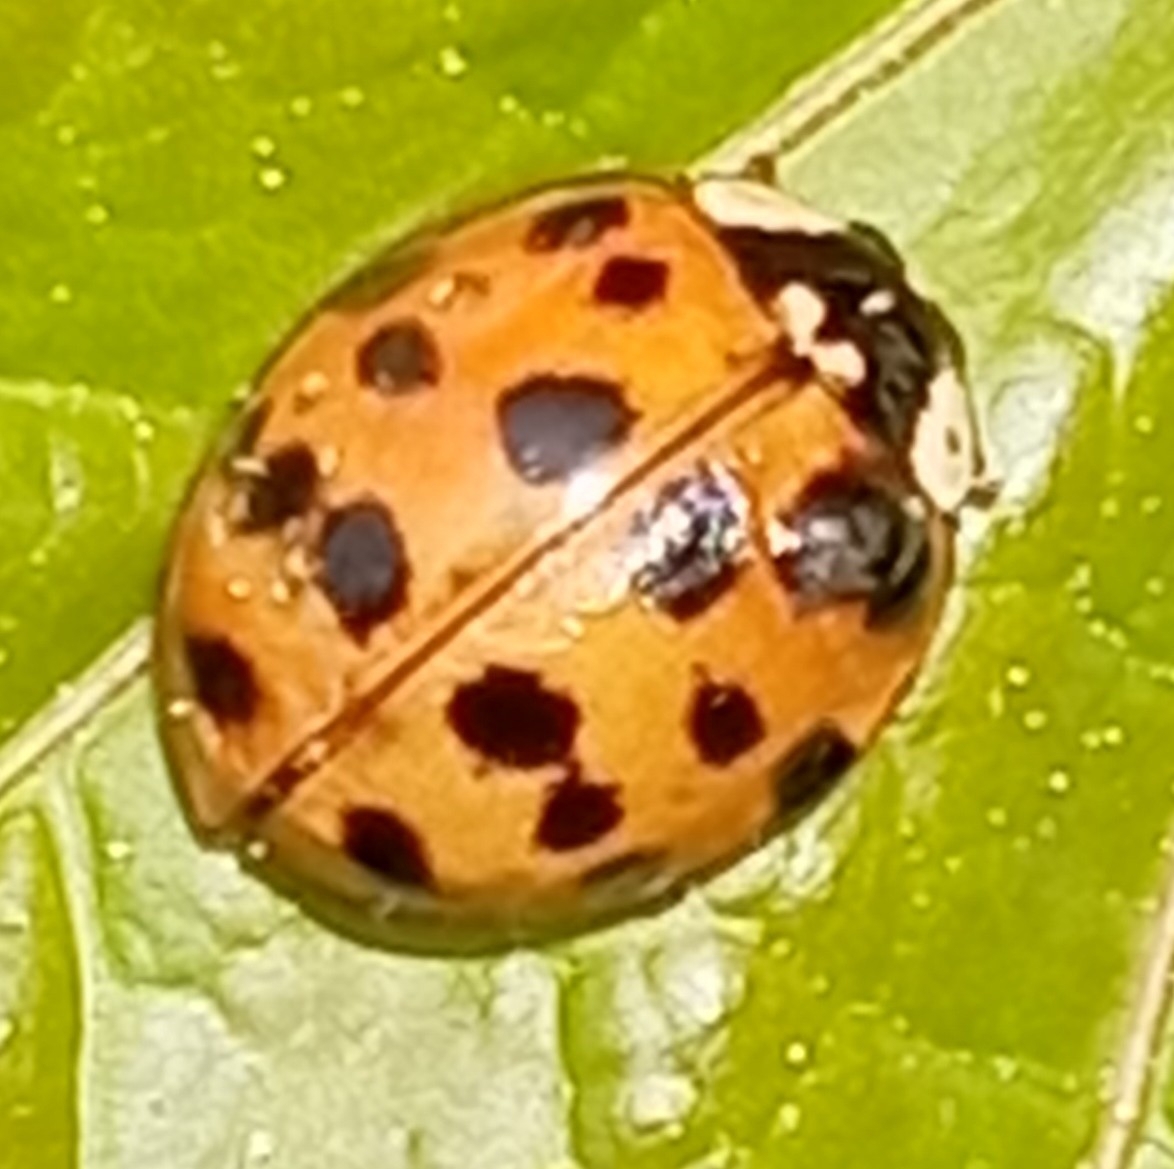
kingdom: Animalia
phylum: Arthropoda
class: Insecta
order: Coleoptera
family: Coccinellidae
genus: Harmonia
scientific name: Harmonia axyridis
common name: Harlequin ladybird
